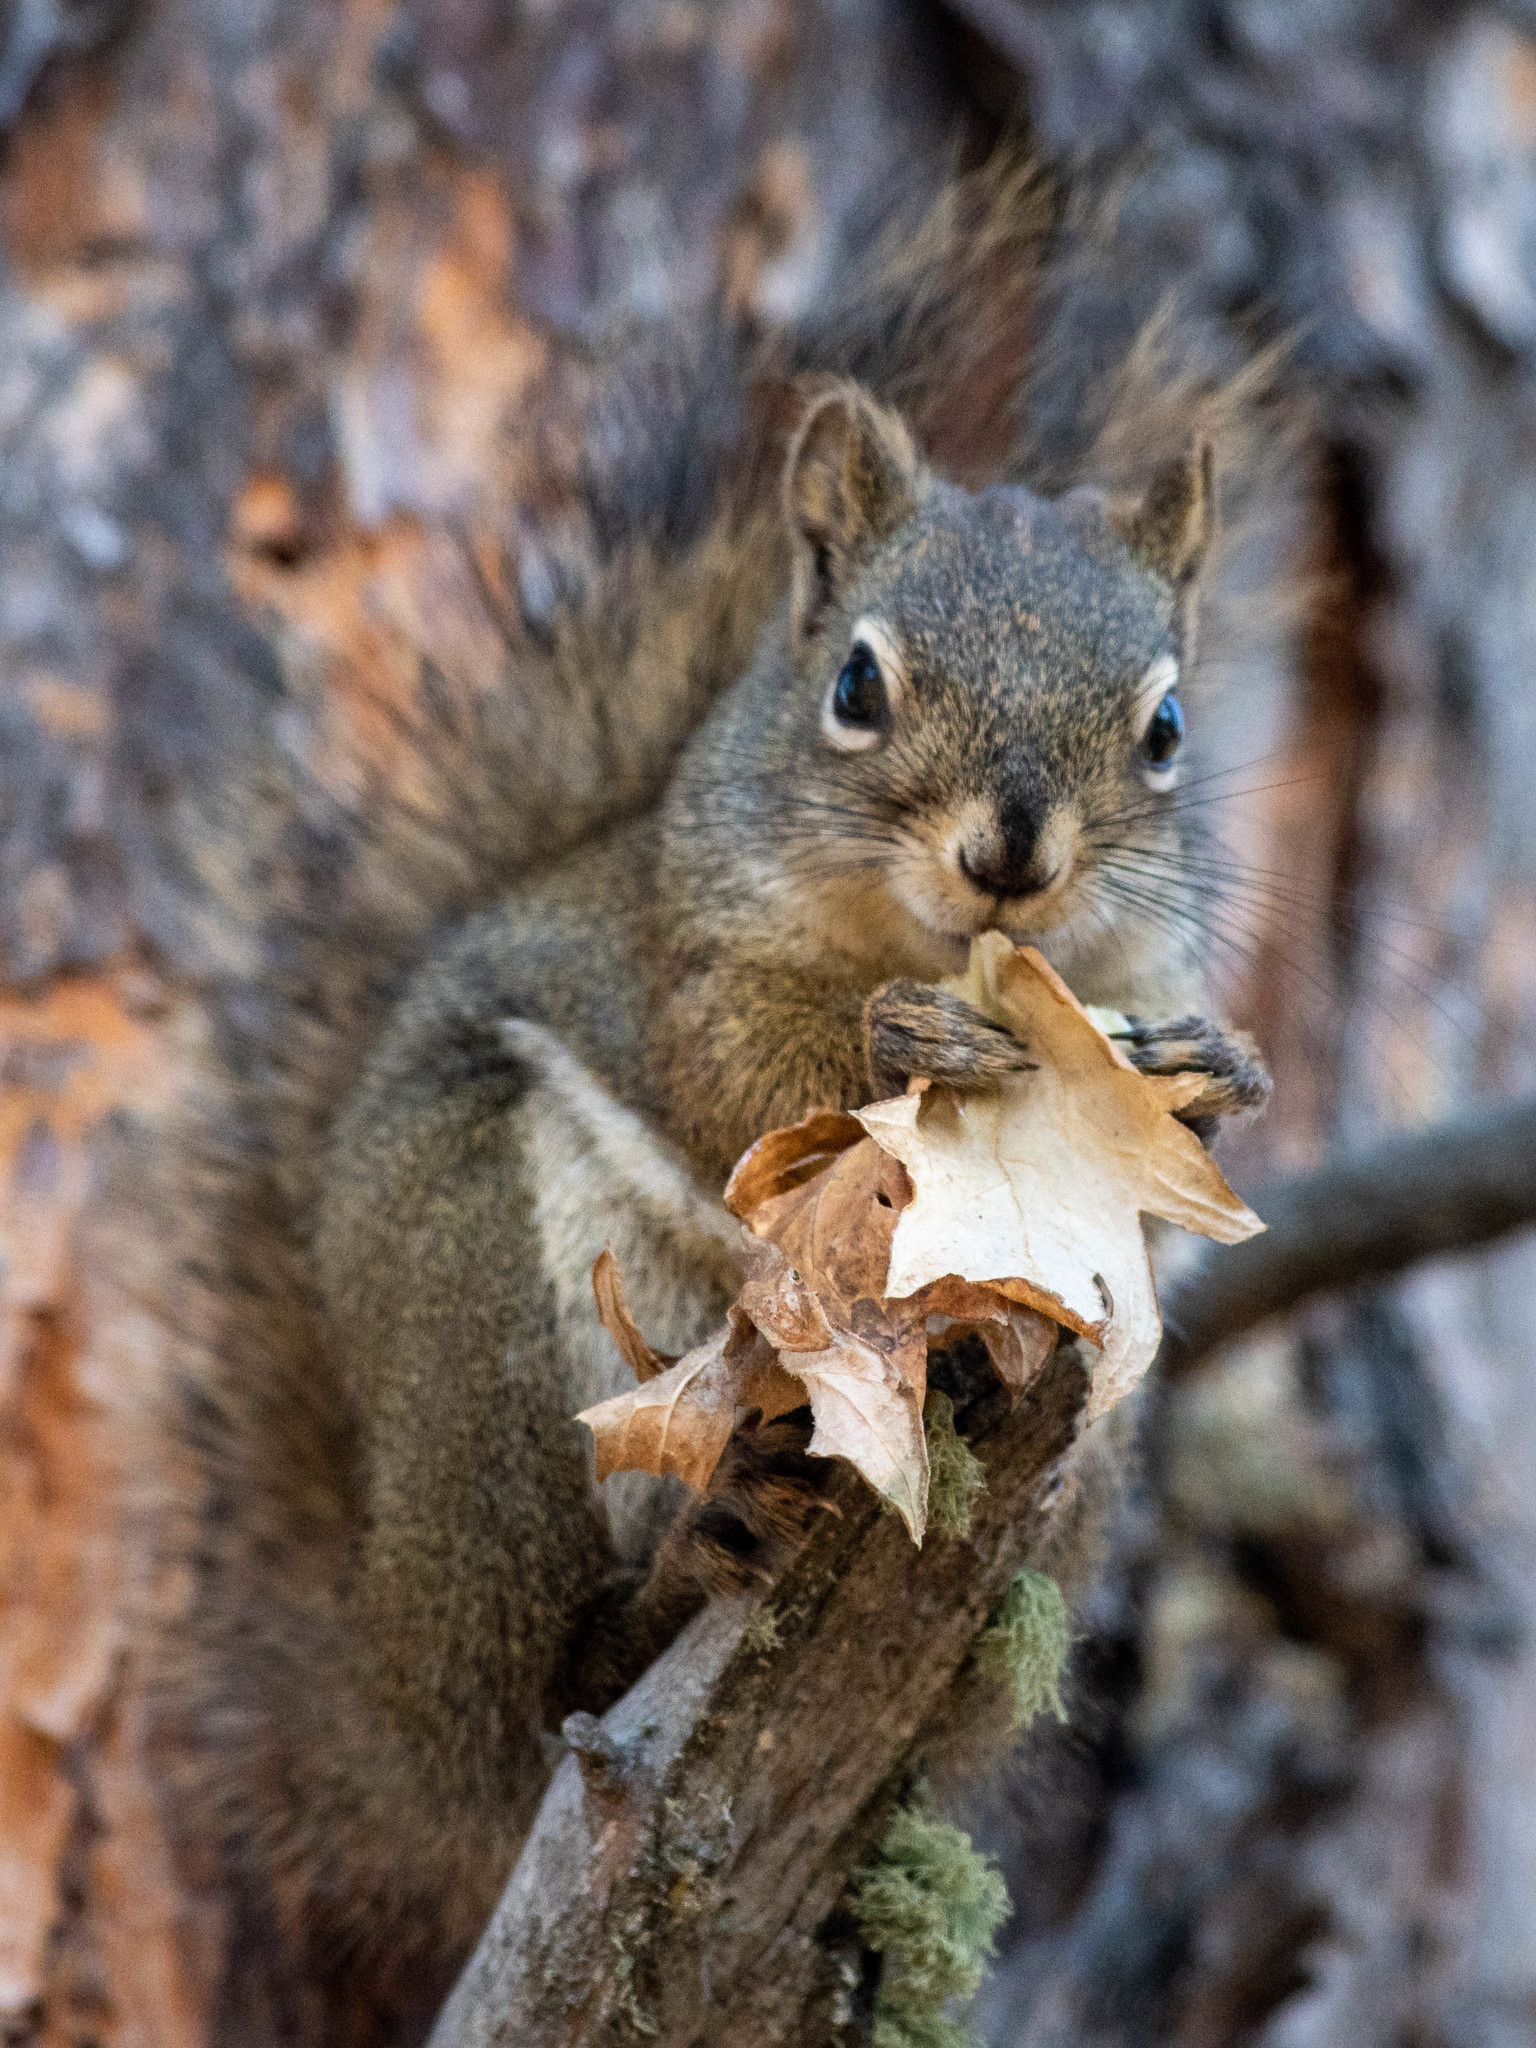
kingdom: Animalia
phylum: Chordata
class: Mammalia
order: Rodentia
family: Sciuridae
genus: Tamiasciurus
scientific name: Tamiasciurus hudsonicus
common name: Red squirrel
